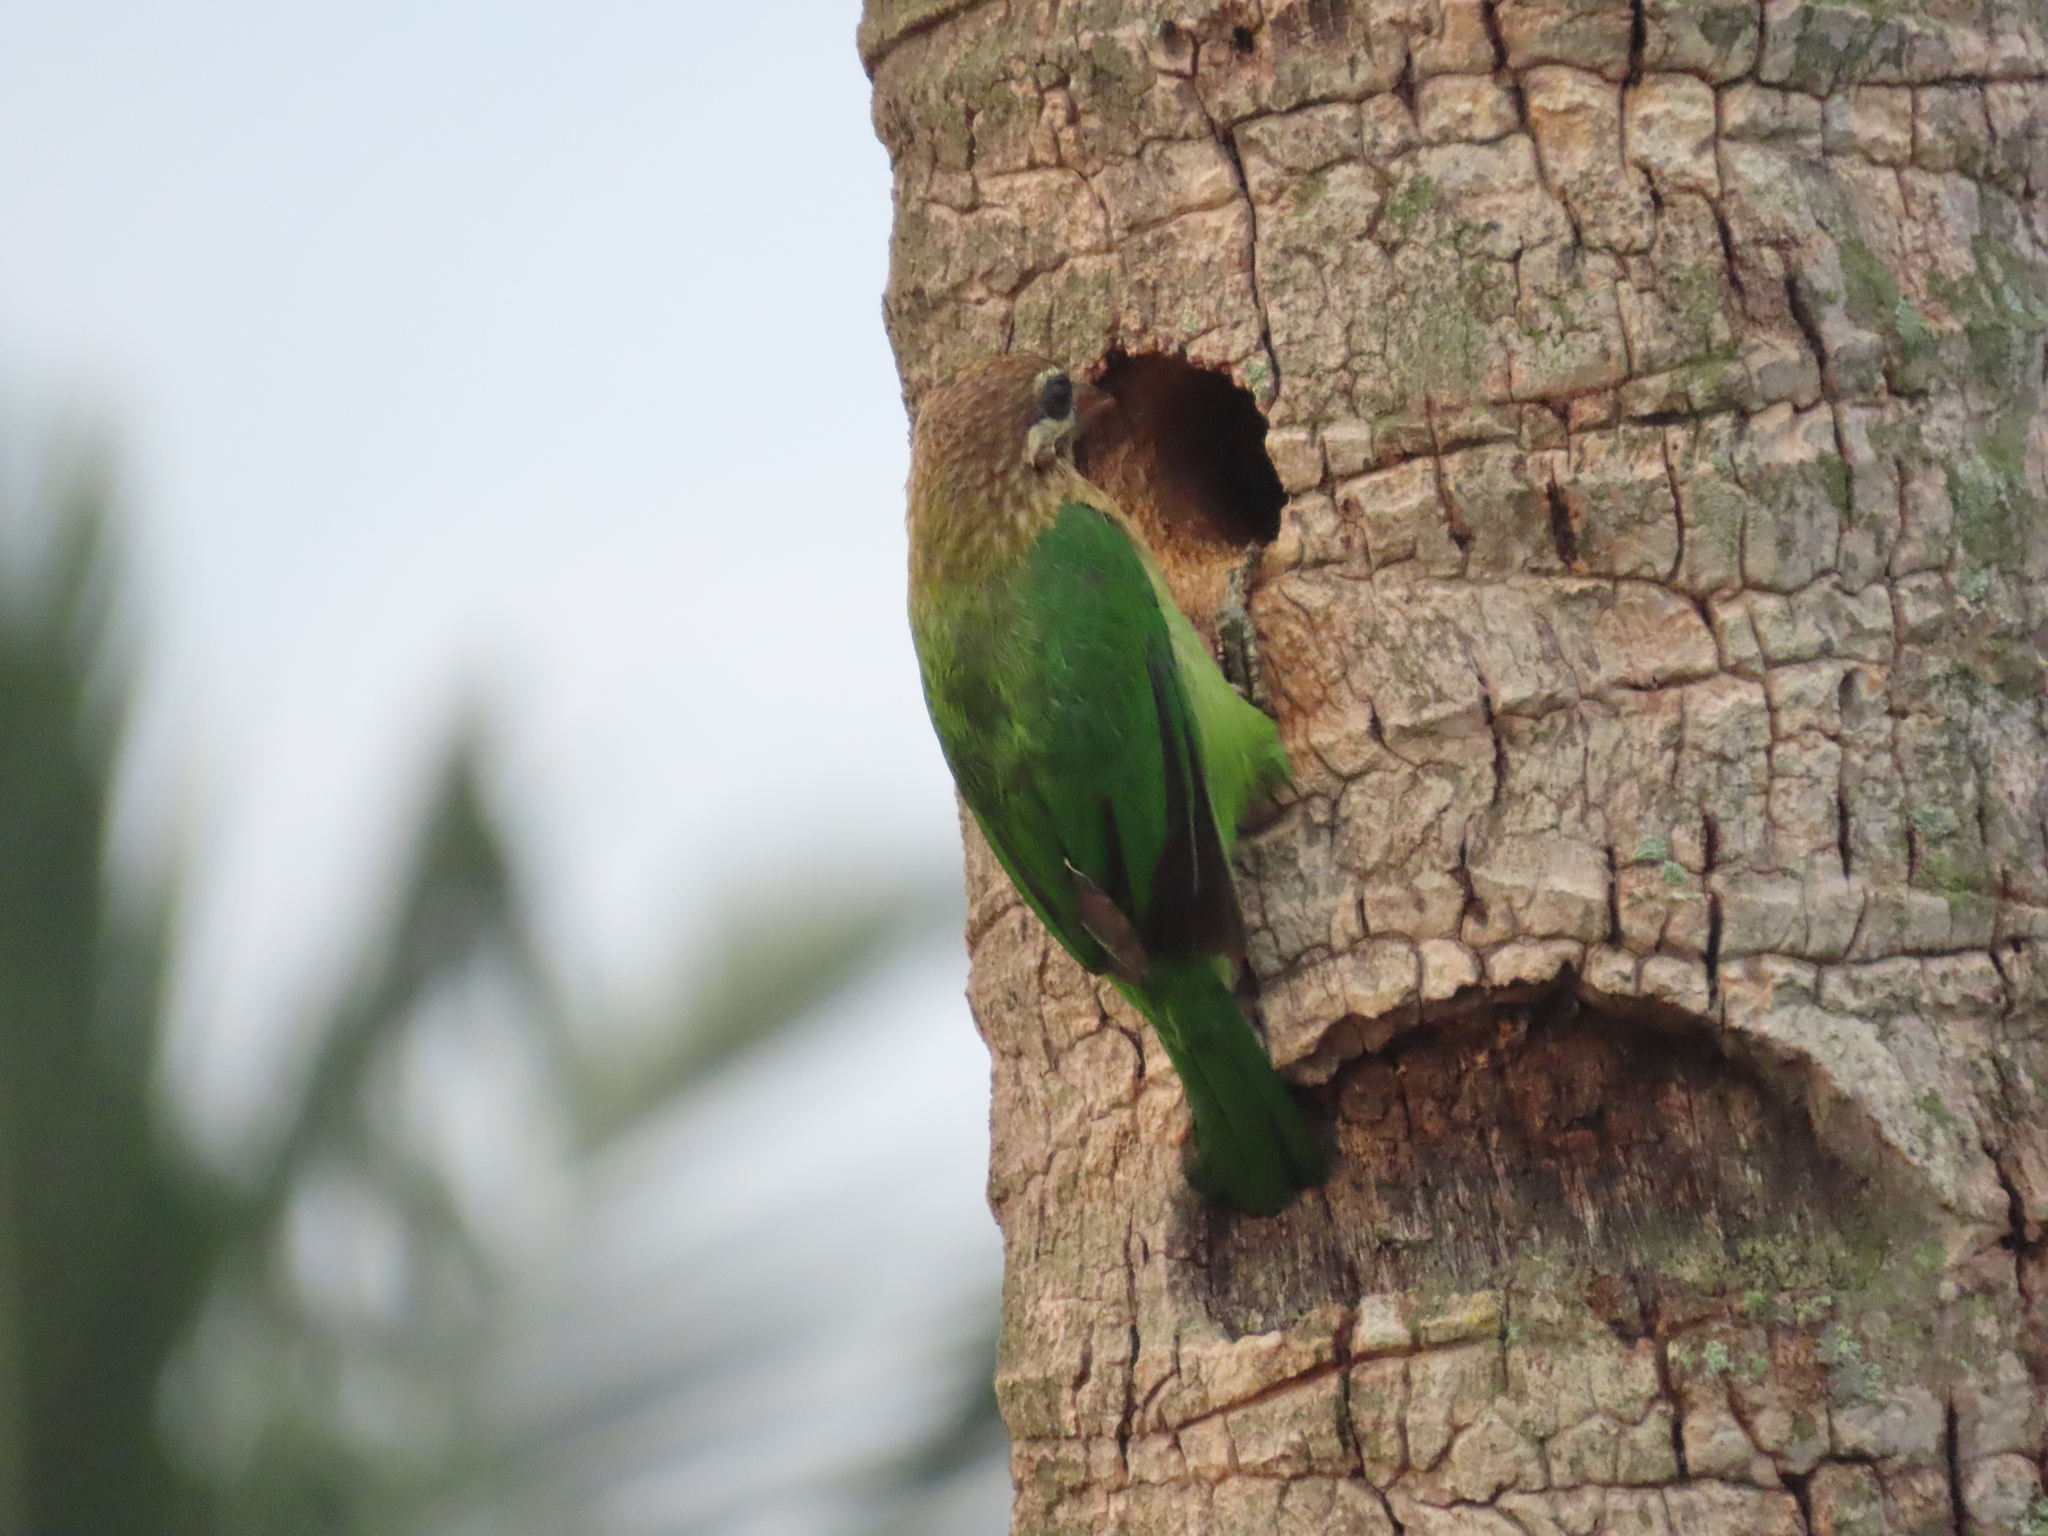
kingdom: Animalia
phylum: Chordata
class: Aves
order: Piciformes
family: Megalaimidae
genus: Psilopogon
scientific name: Psilopogon viridis
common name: White-cheeked barbet
